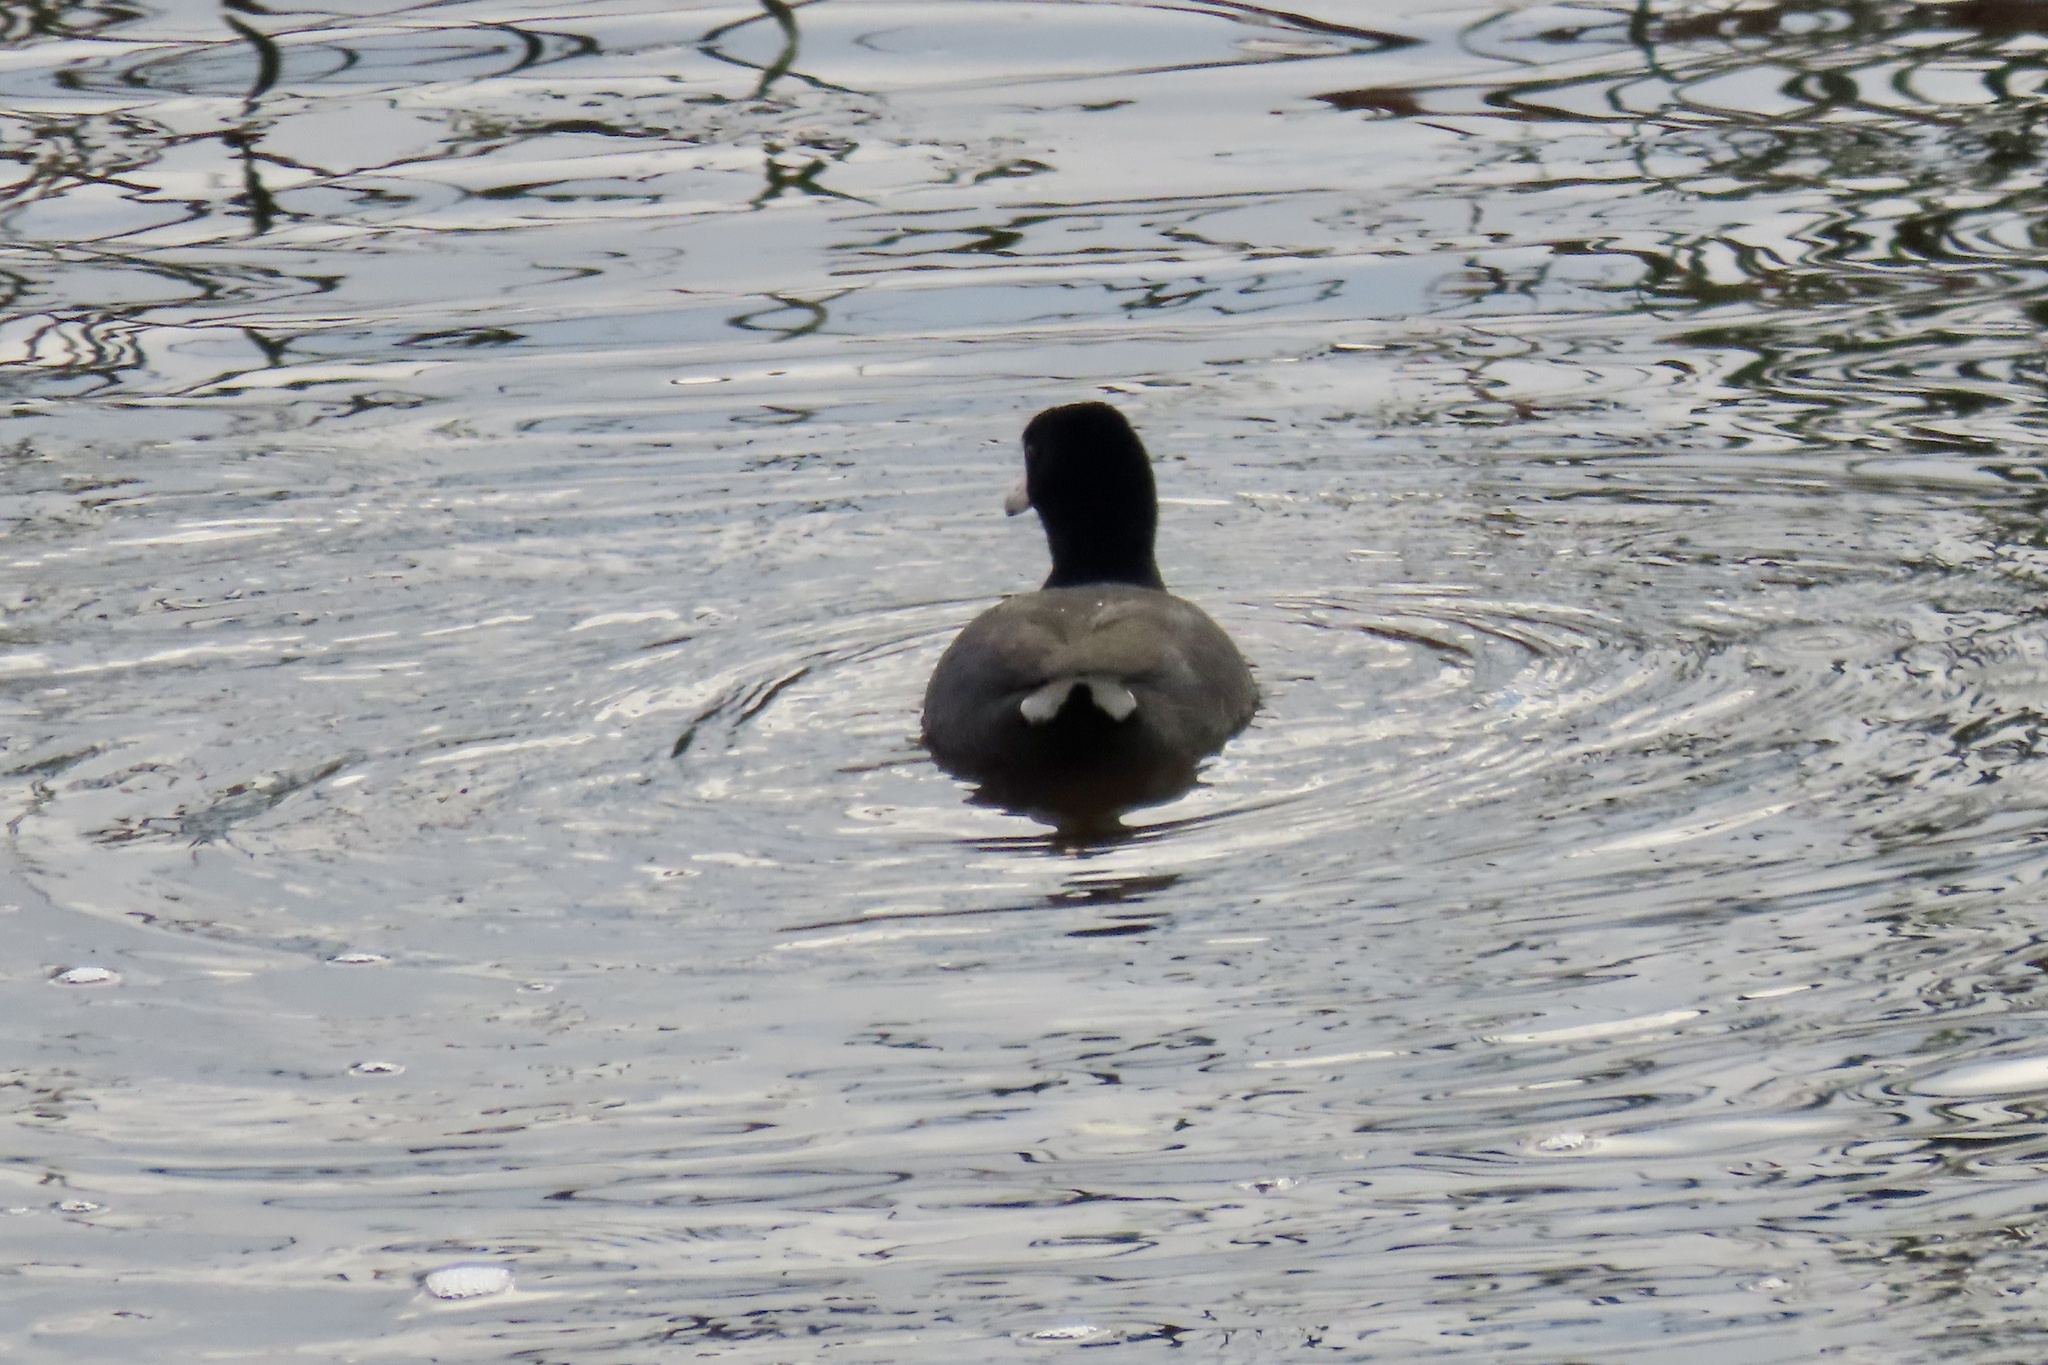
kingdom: Animalia
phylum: Chordata
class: Aves
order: Gruiformes
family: Rallidae
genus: Fulica
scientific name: Fulica americana
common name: American coot
